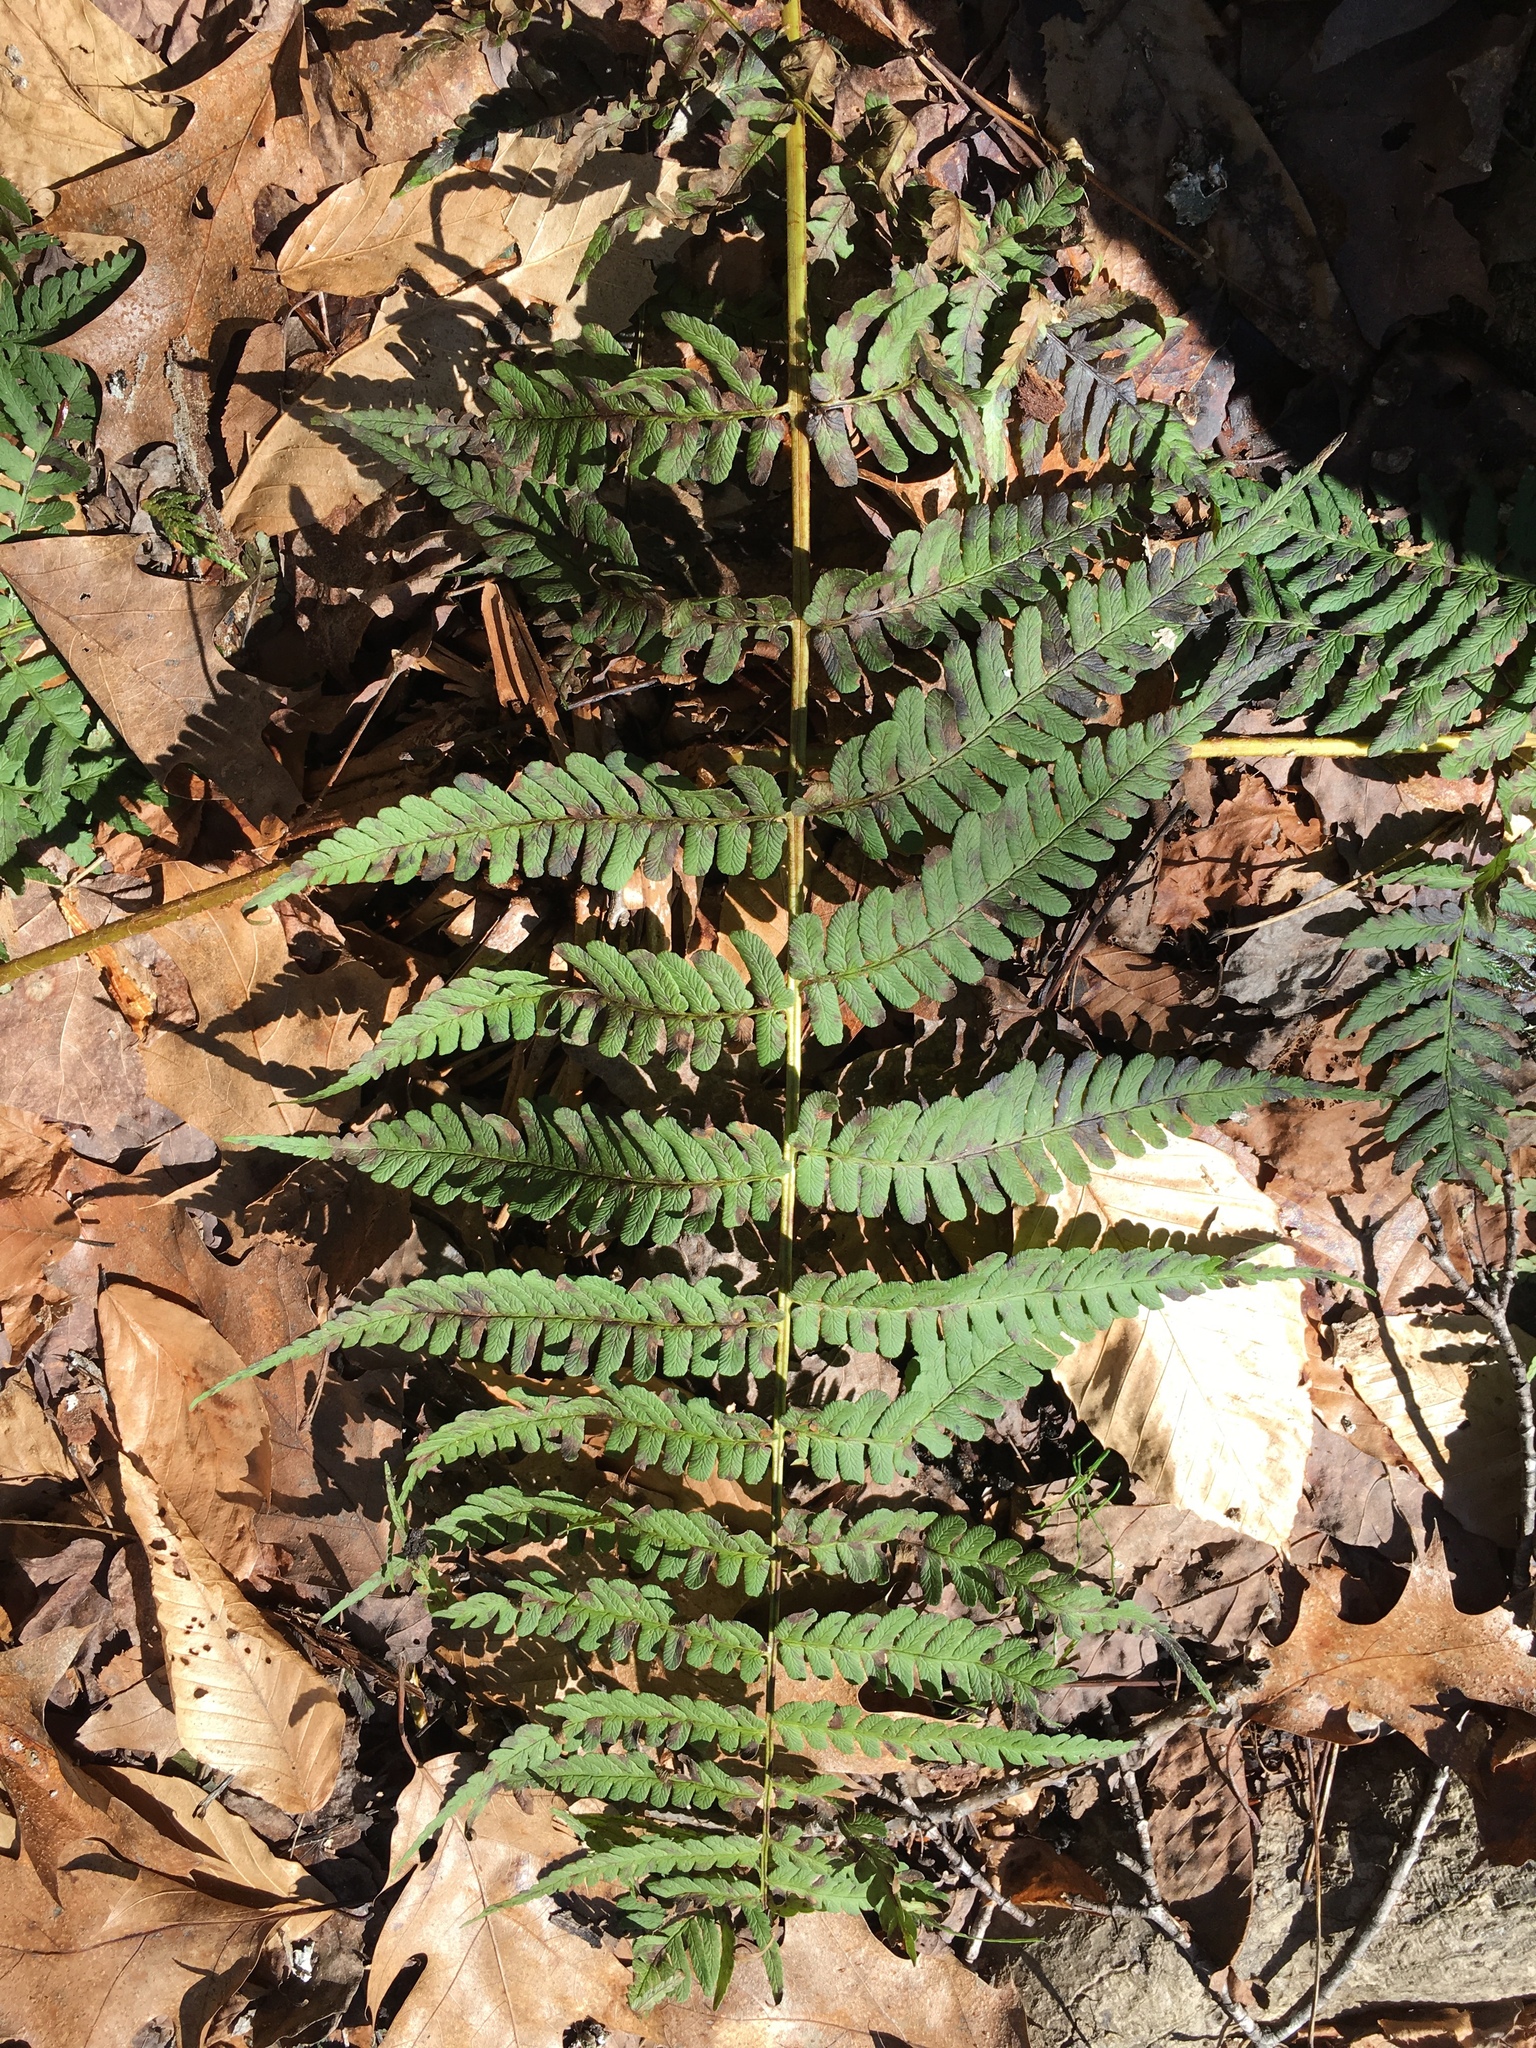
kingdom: Plantae
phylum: Tracheophyta
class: Polypodiopsida
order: Polypodiales
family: Dryopteridaceae
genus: Dryopteris
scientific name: Dryopteris marginalis
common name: Marginal wood fern
